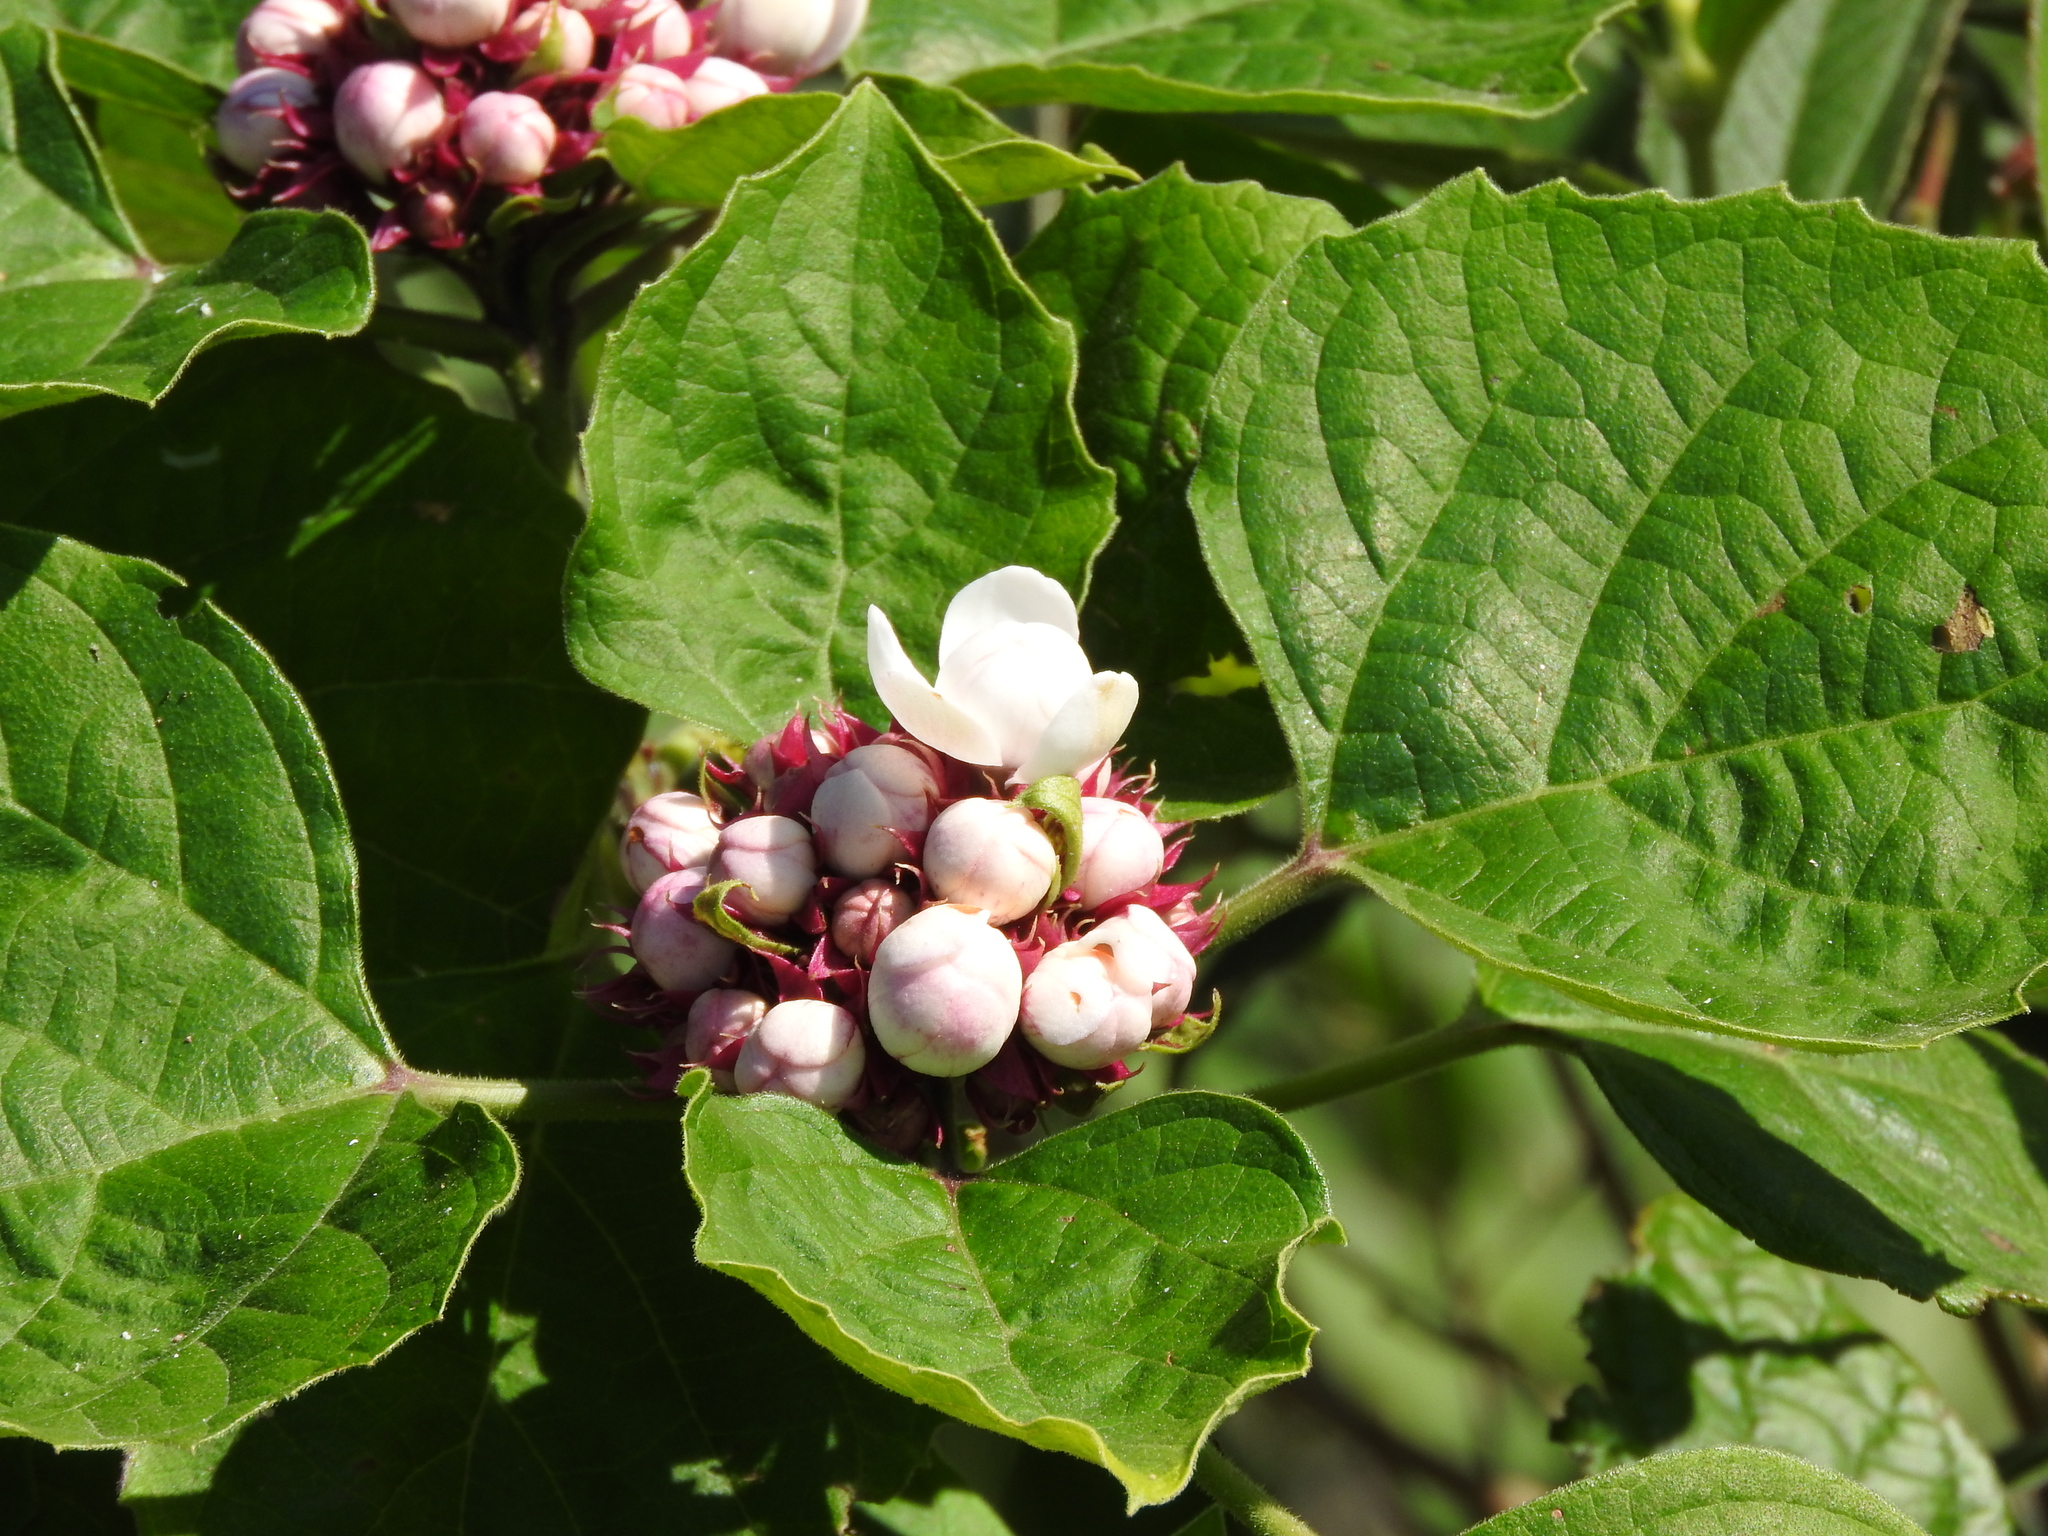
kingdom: Plantae
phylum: Tracheophyta
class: Magnoliopsida
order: Lamiales
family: Lamiaceae
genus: Clerodendrum
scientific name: Clerodendrum chinense
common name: Stickbush
